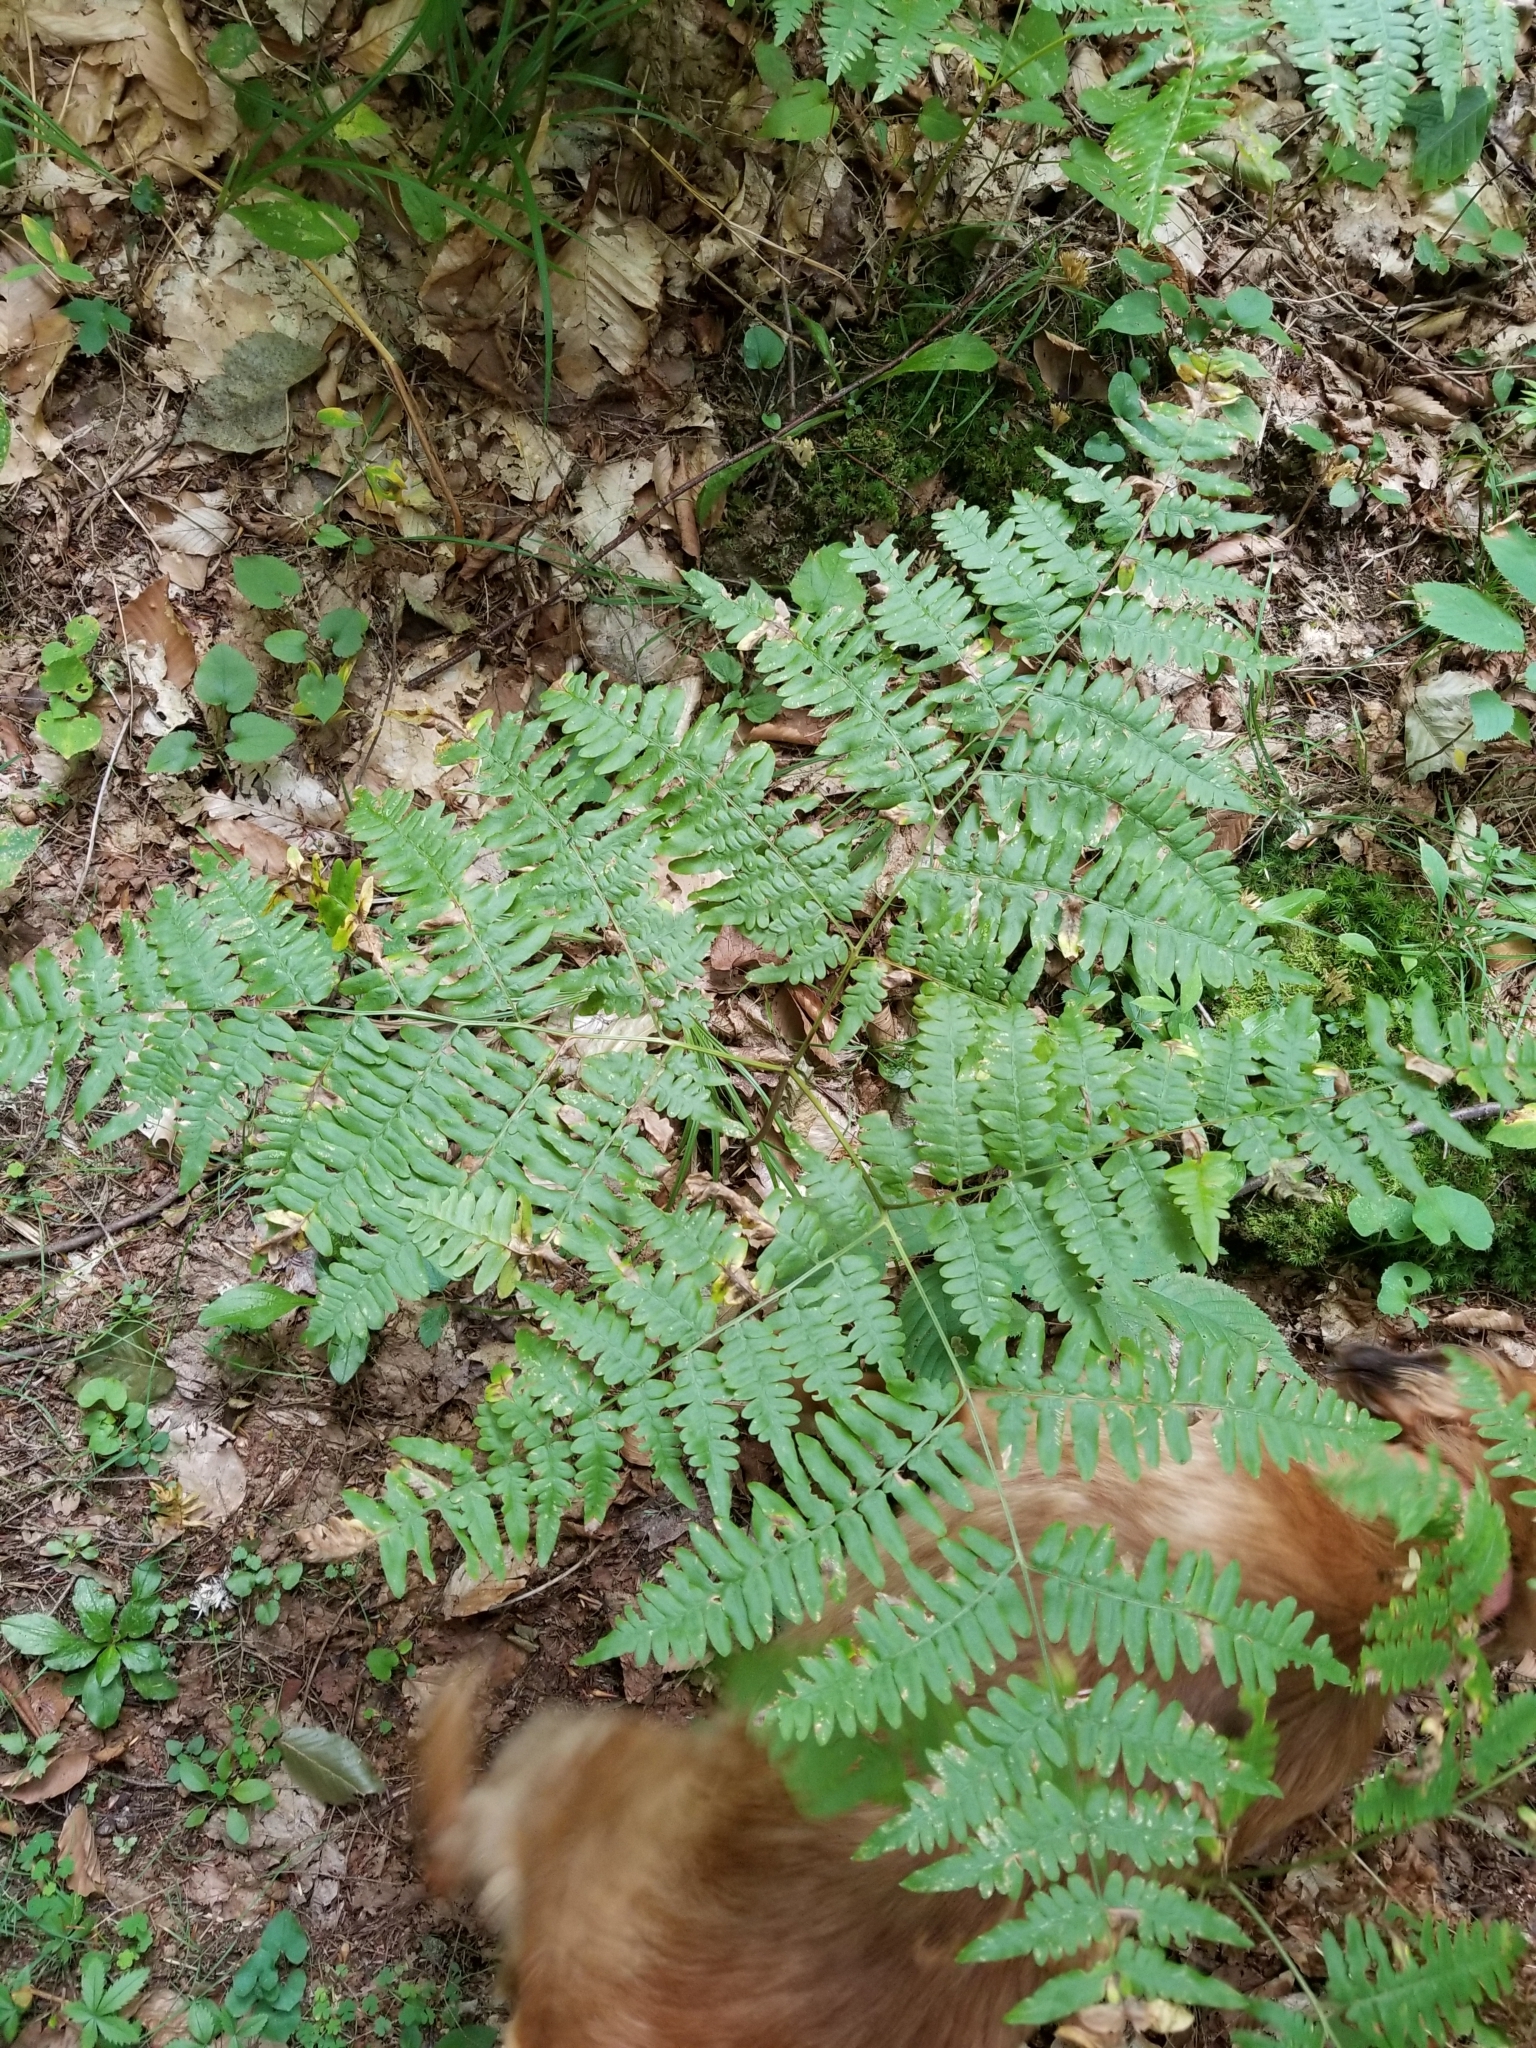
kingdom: Plantae
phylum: Tracheophyta
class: Polypodiopsida
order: Polypodiales
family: Dennstaedtiaceae
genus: Pteridium
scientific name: Pteridium aquilinum
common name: Bracken
